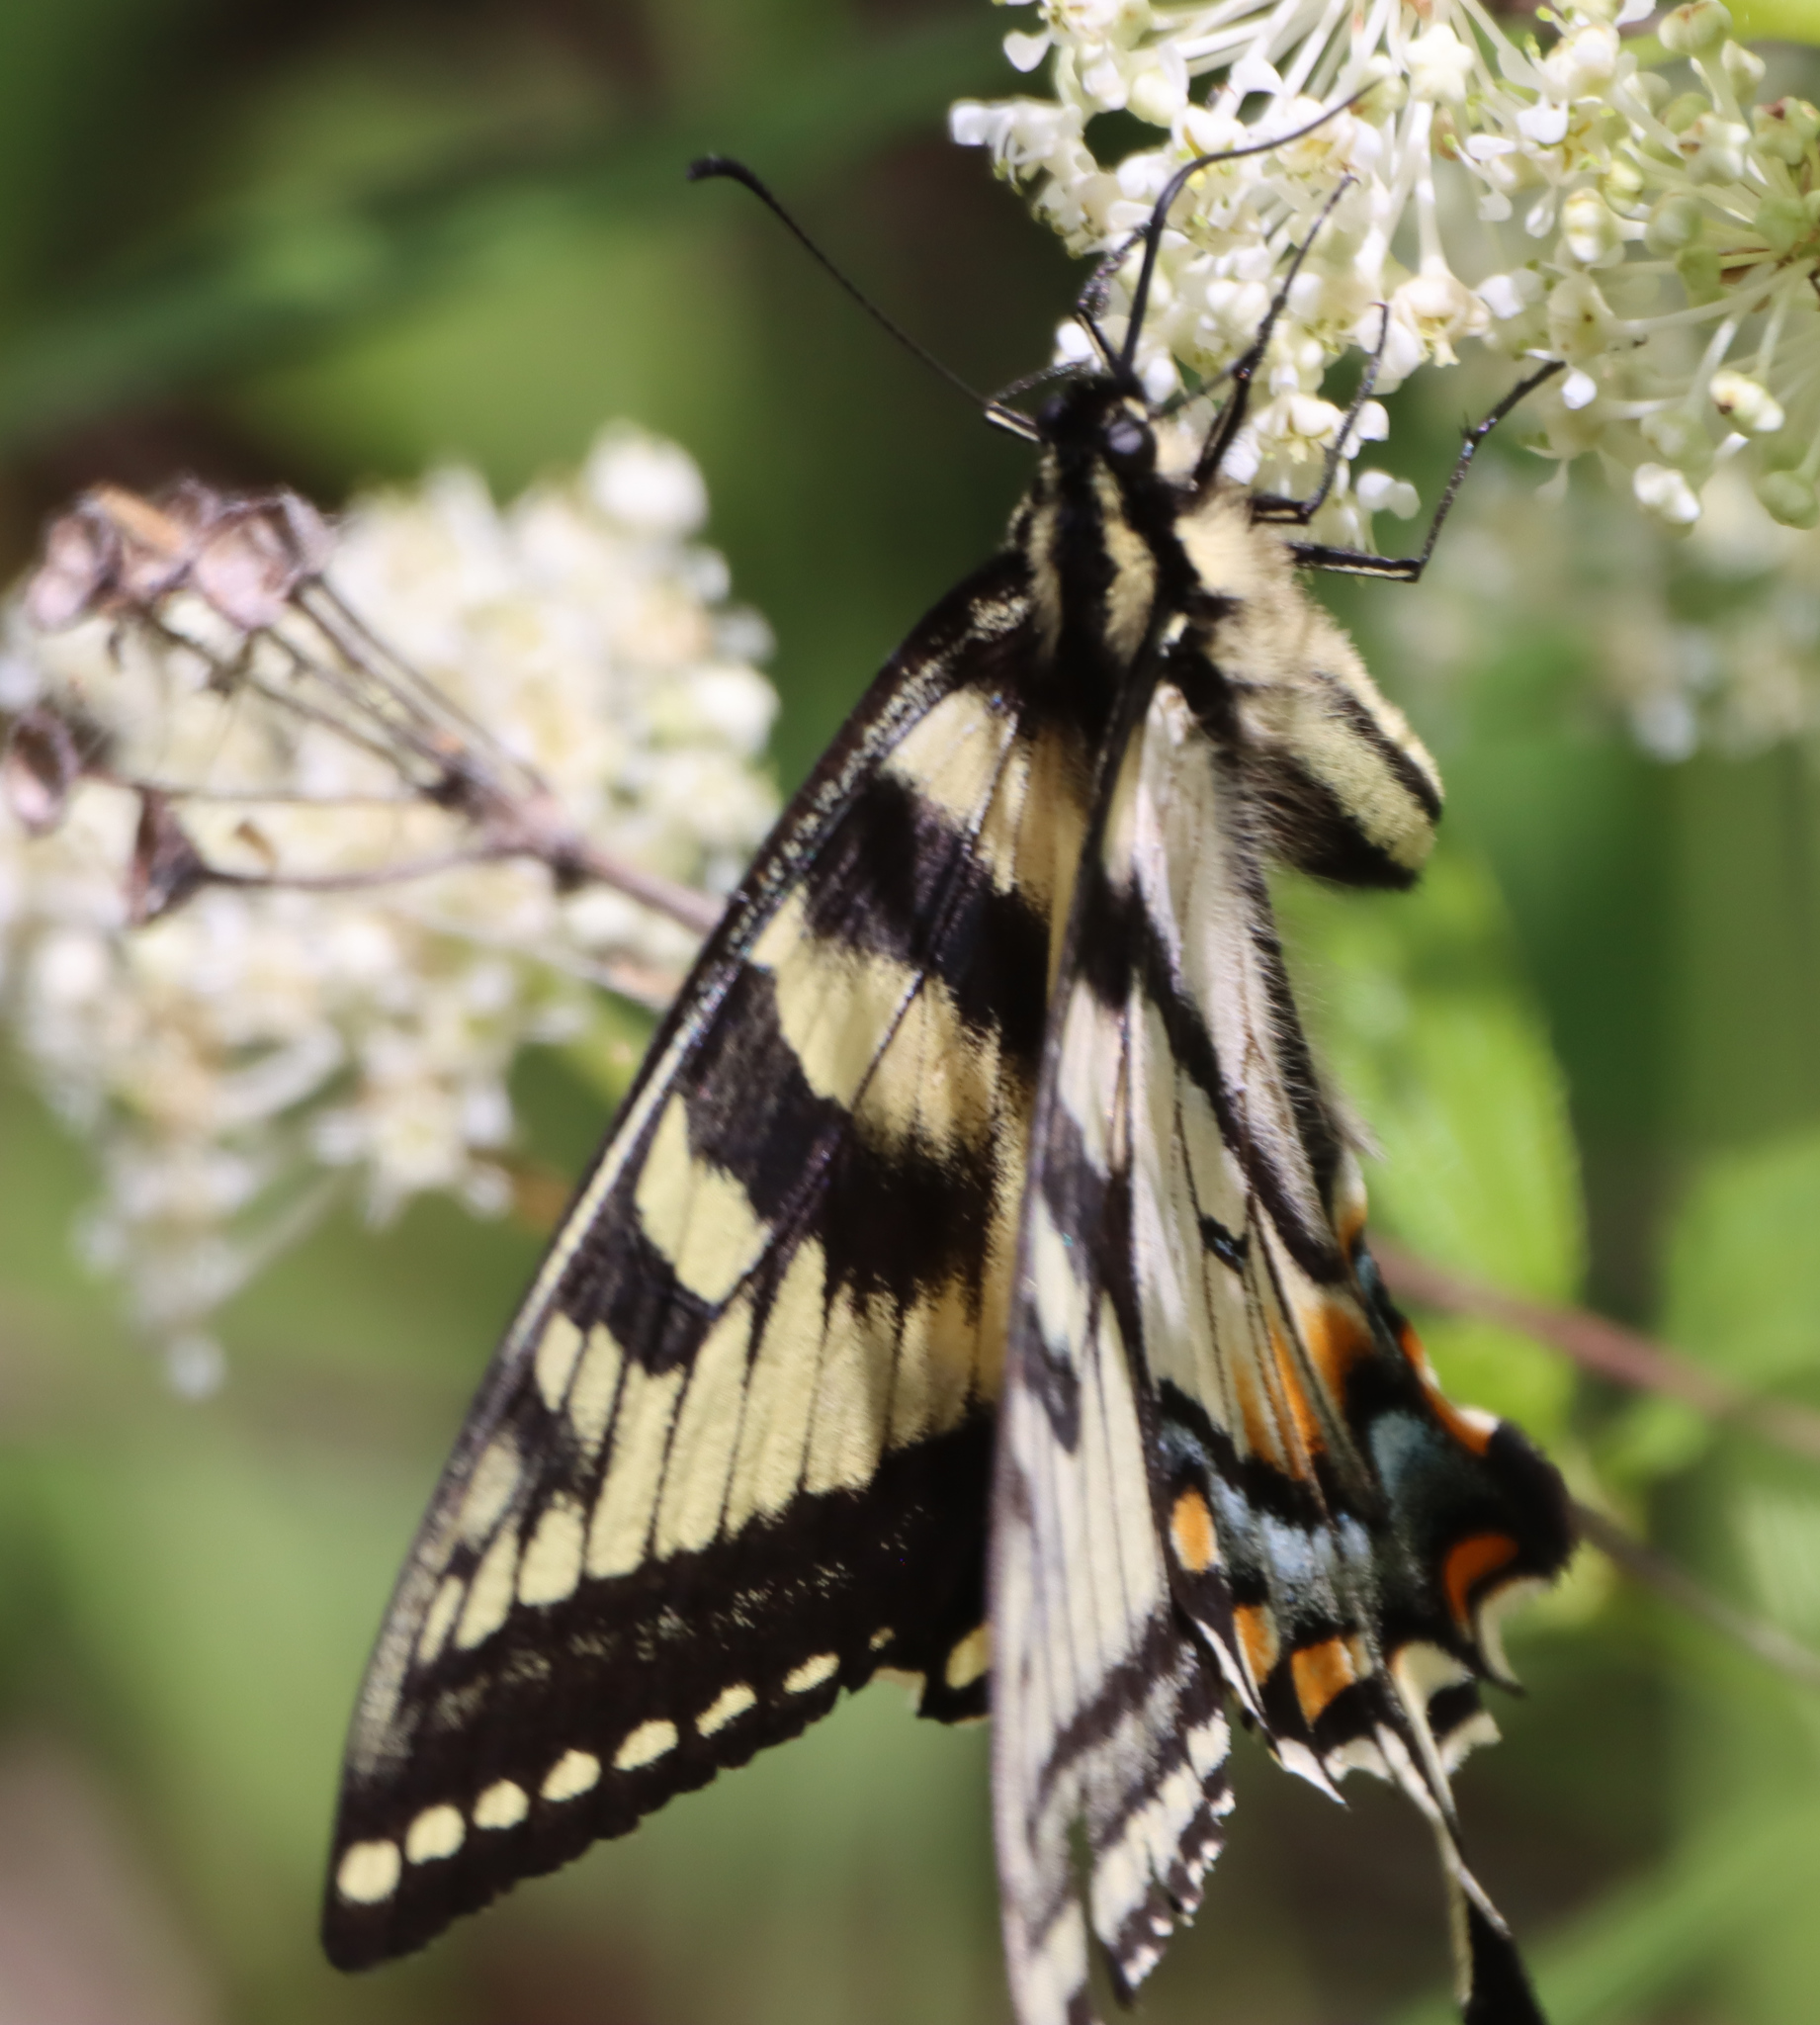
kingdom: Animalia
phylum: Arthropoda
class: Insecta
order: Lepidoptera
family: Papilionidae
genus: Papilio
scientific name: Papilio canadensis
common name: Canadian tiger swallowtail
